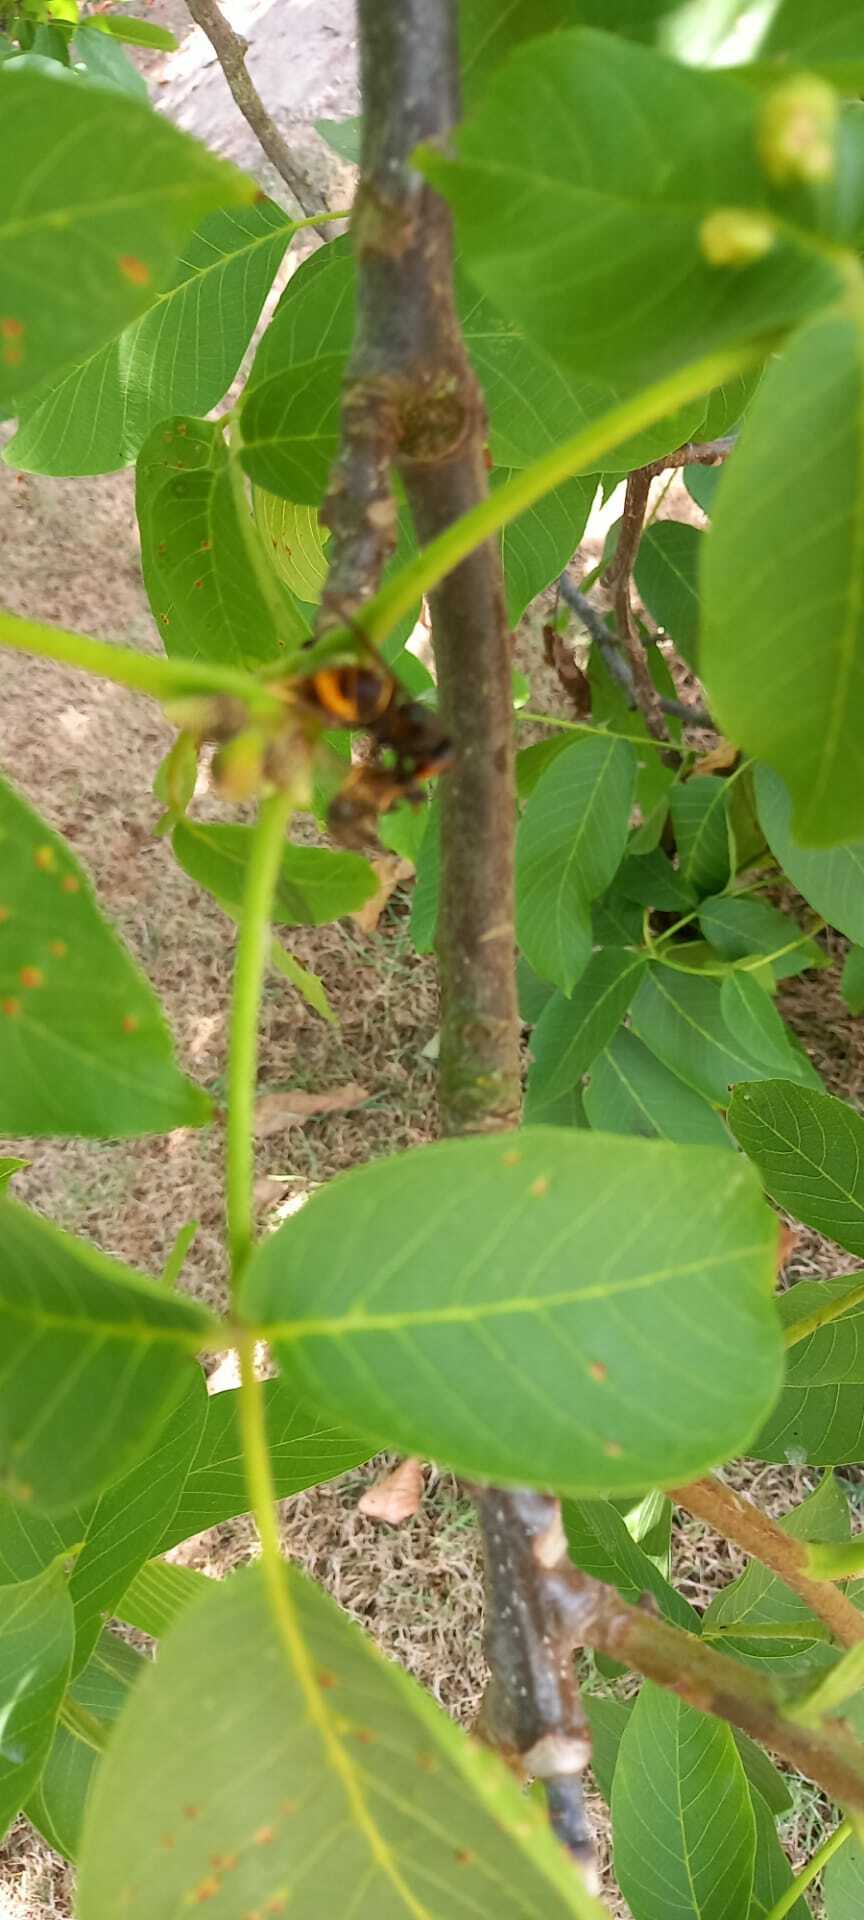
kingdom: Animalia
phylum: Arthropoda
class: Insecta
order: Hymenoptera
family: Vespidae
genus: Vespa
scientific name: Vespa velutina
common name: Asian hornet
